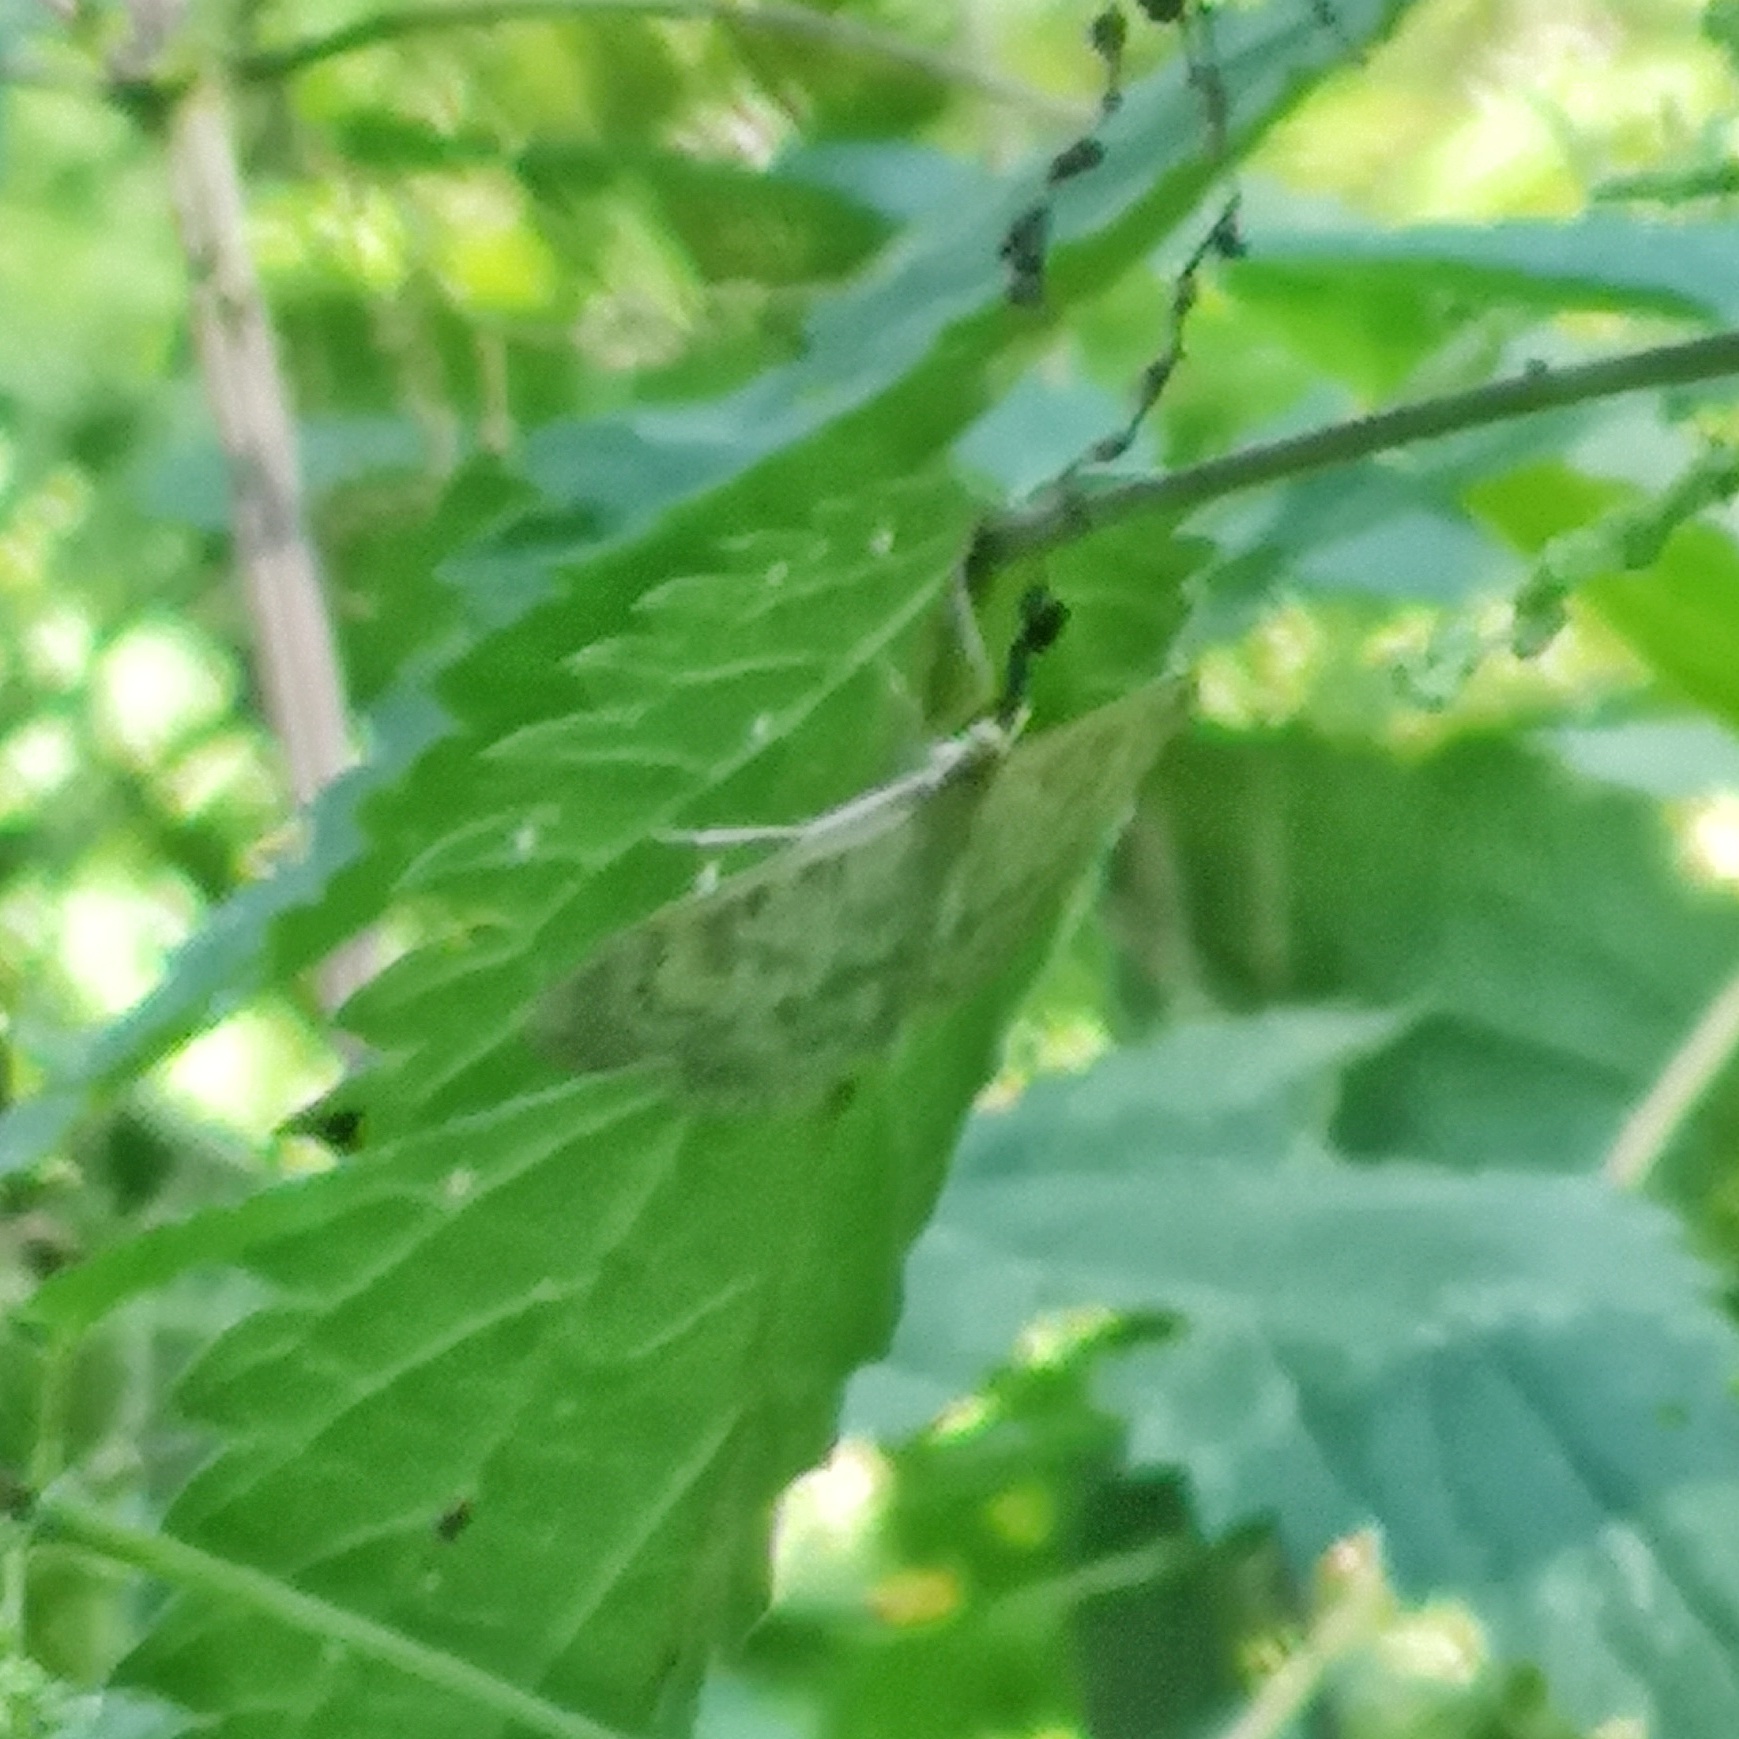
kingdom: Animalia
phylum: Arthropoda
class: Insecta
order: Lepidoptera
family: Crambidae
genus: Patania
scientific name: Patania ruralis
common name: Mother of pearl
